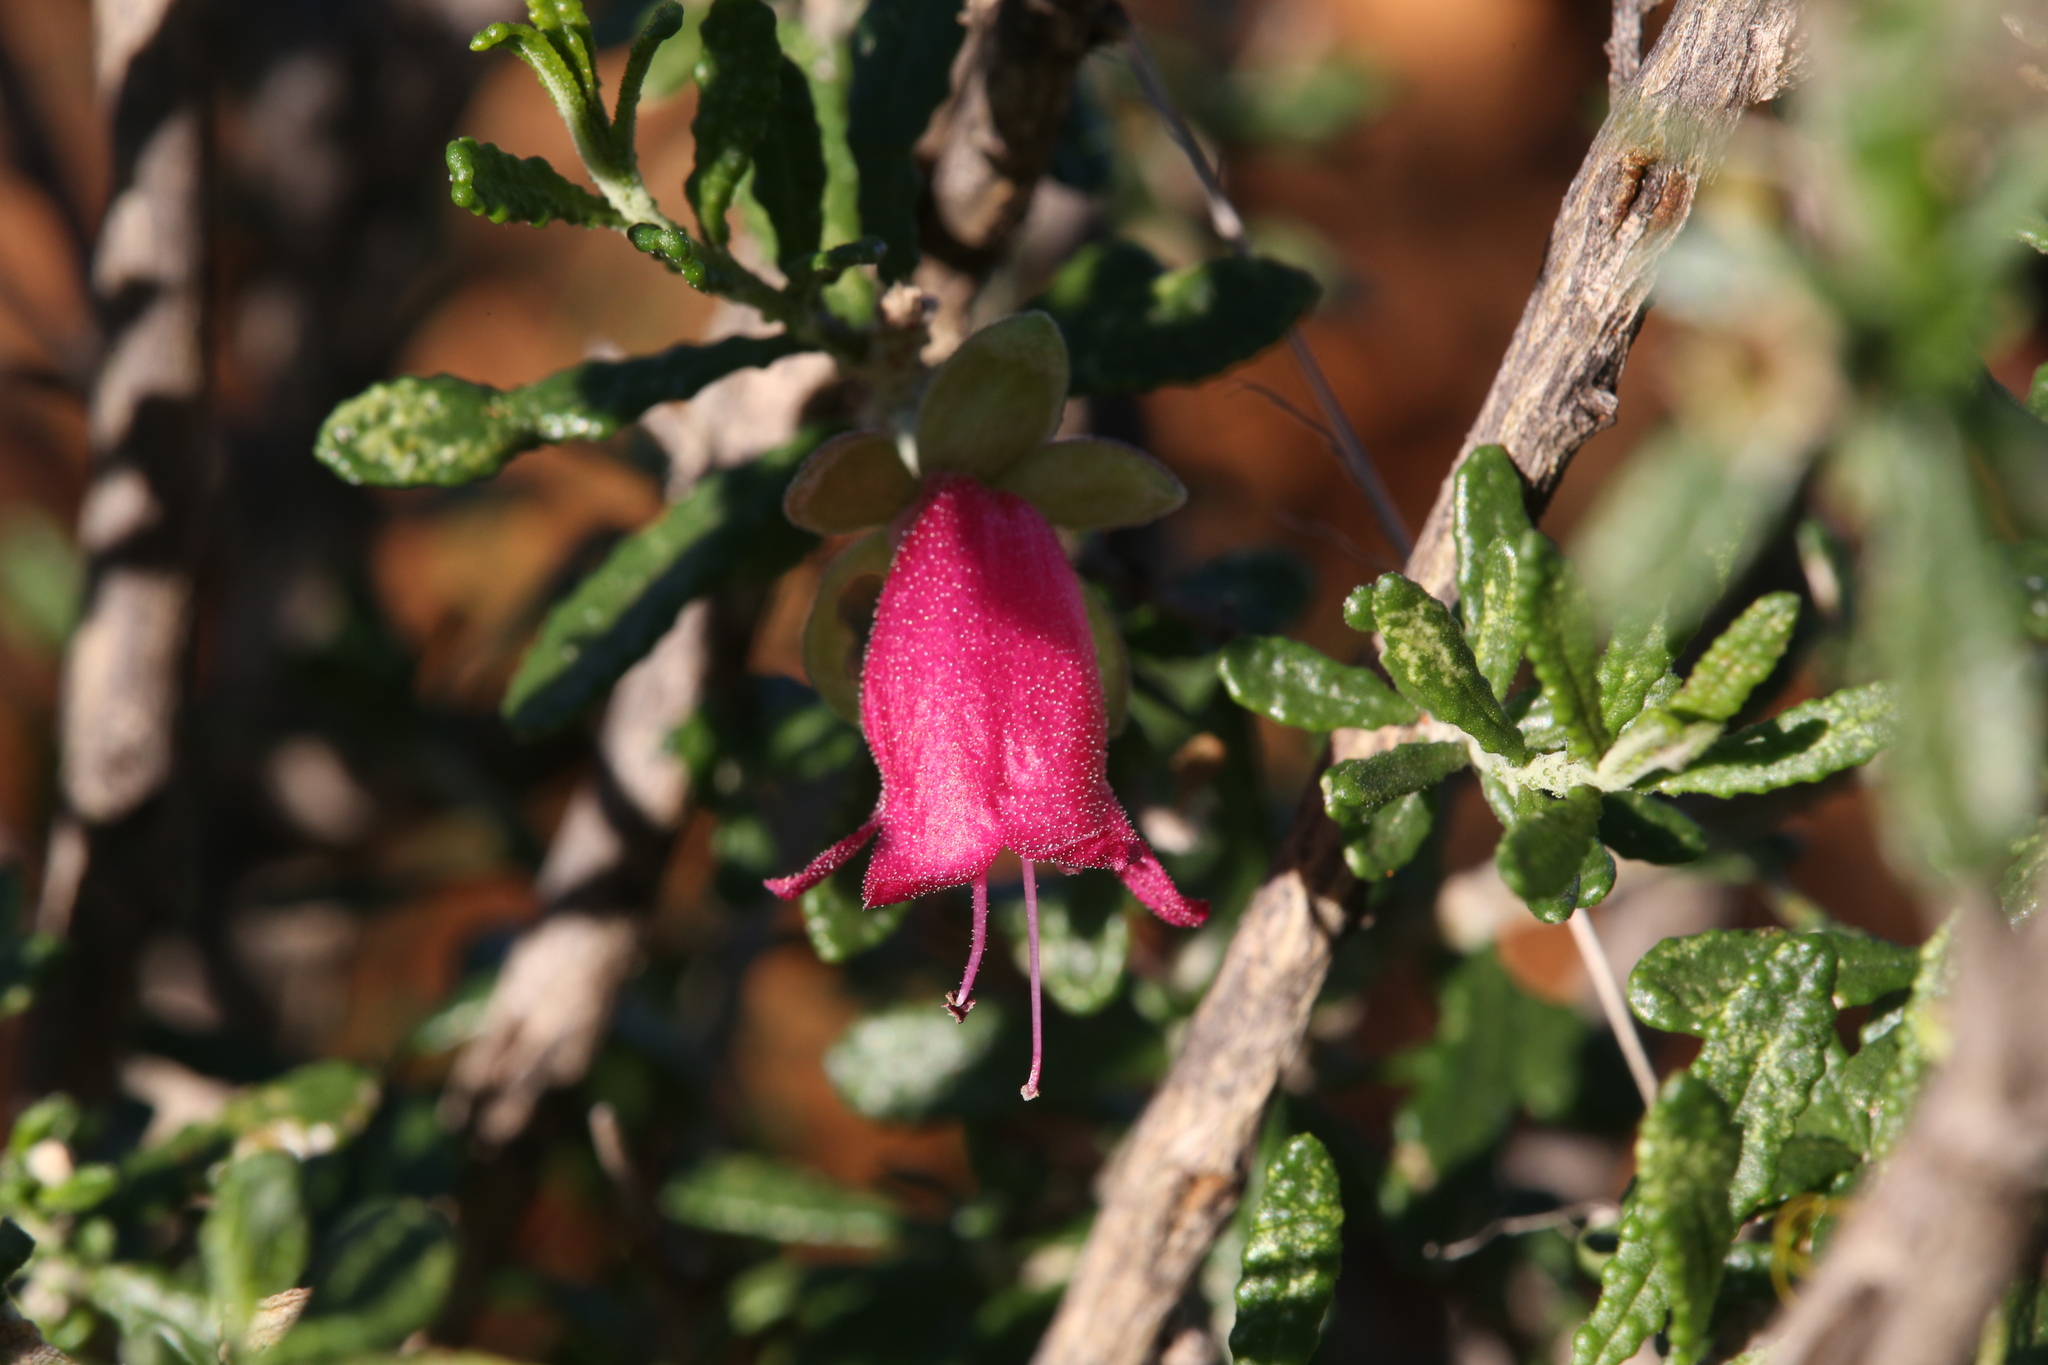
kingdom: Plantae
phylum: Tracheophyta
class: Magnoliopsida
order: Lamiales
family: Scrophulariaceae
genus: Eremophila
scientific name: Eremophila latrobei
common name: Crimson turkeybush
